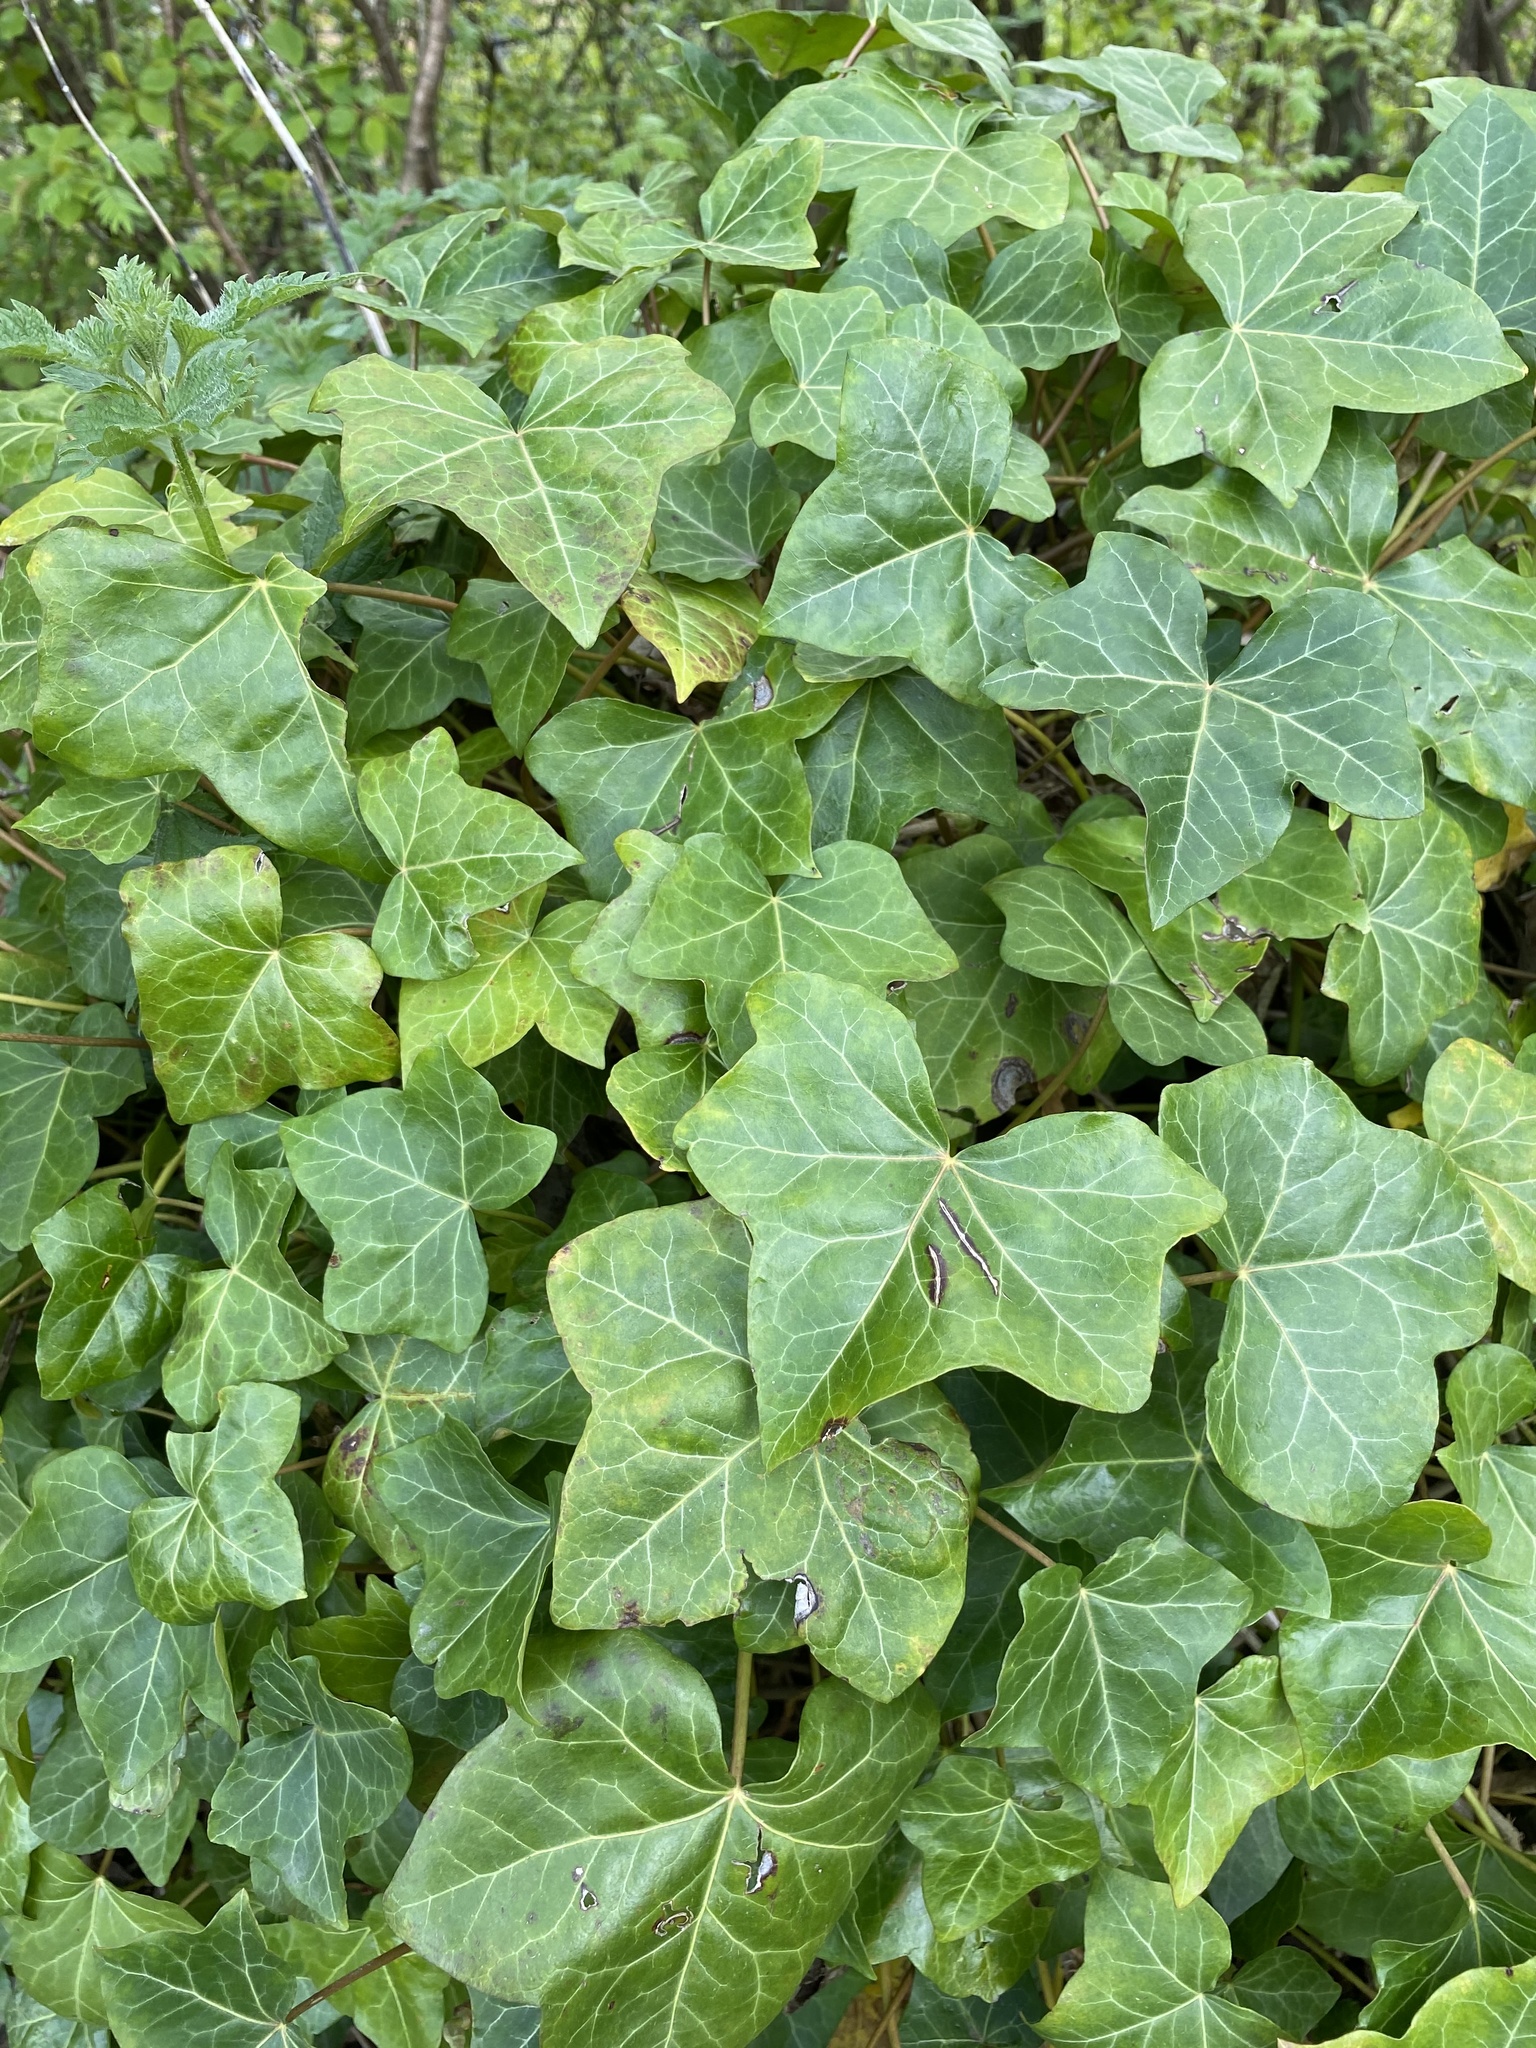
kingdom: Plantae
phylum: Tracheophyta
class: Magnoliopsida
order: Apiales
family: Araliaceae
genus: Hedera
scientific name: Hedera helix
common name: Ivy
